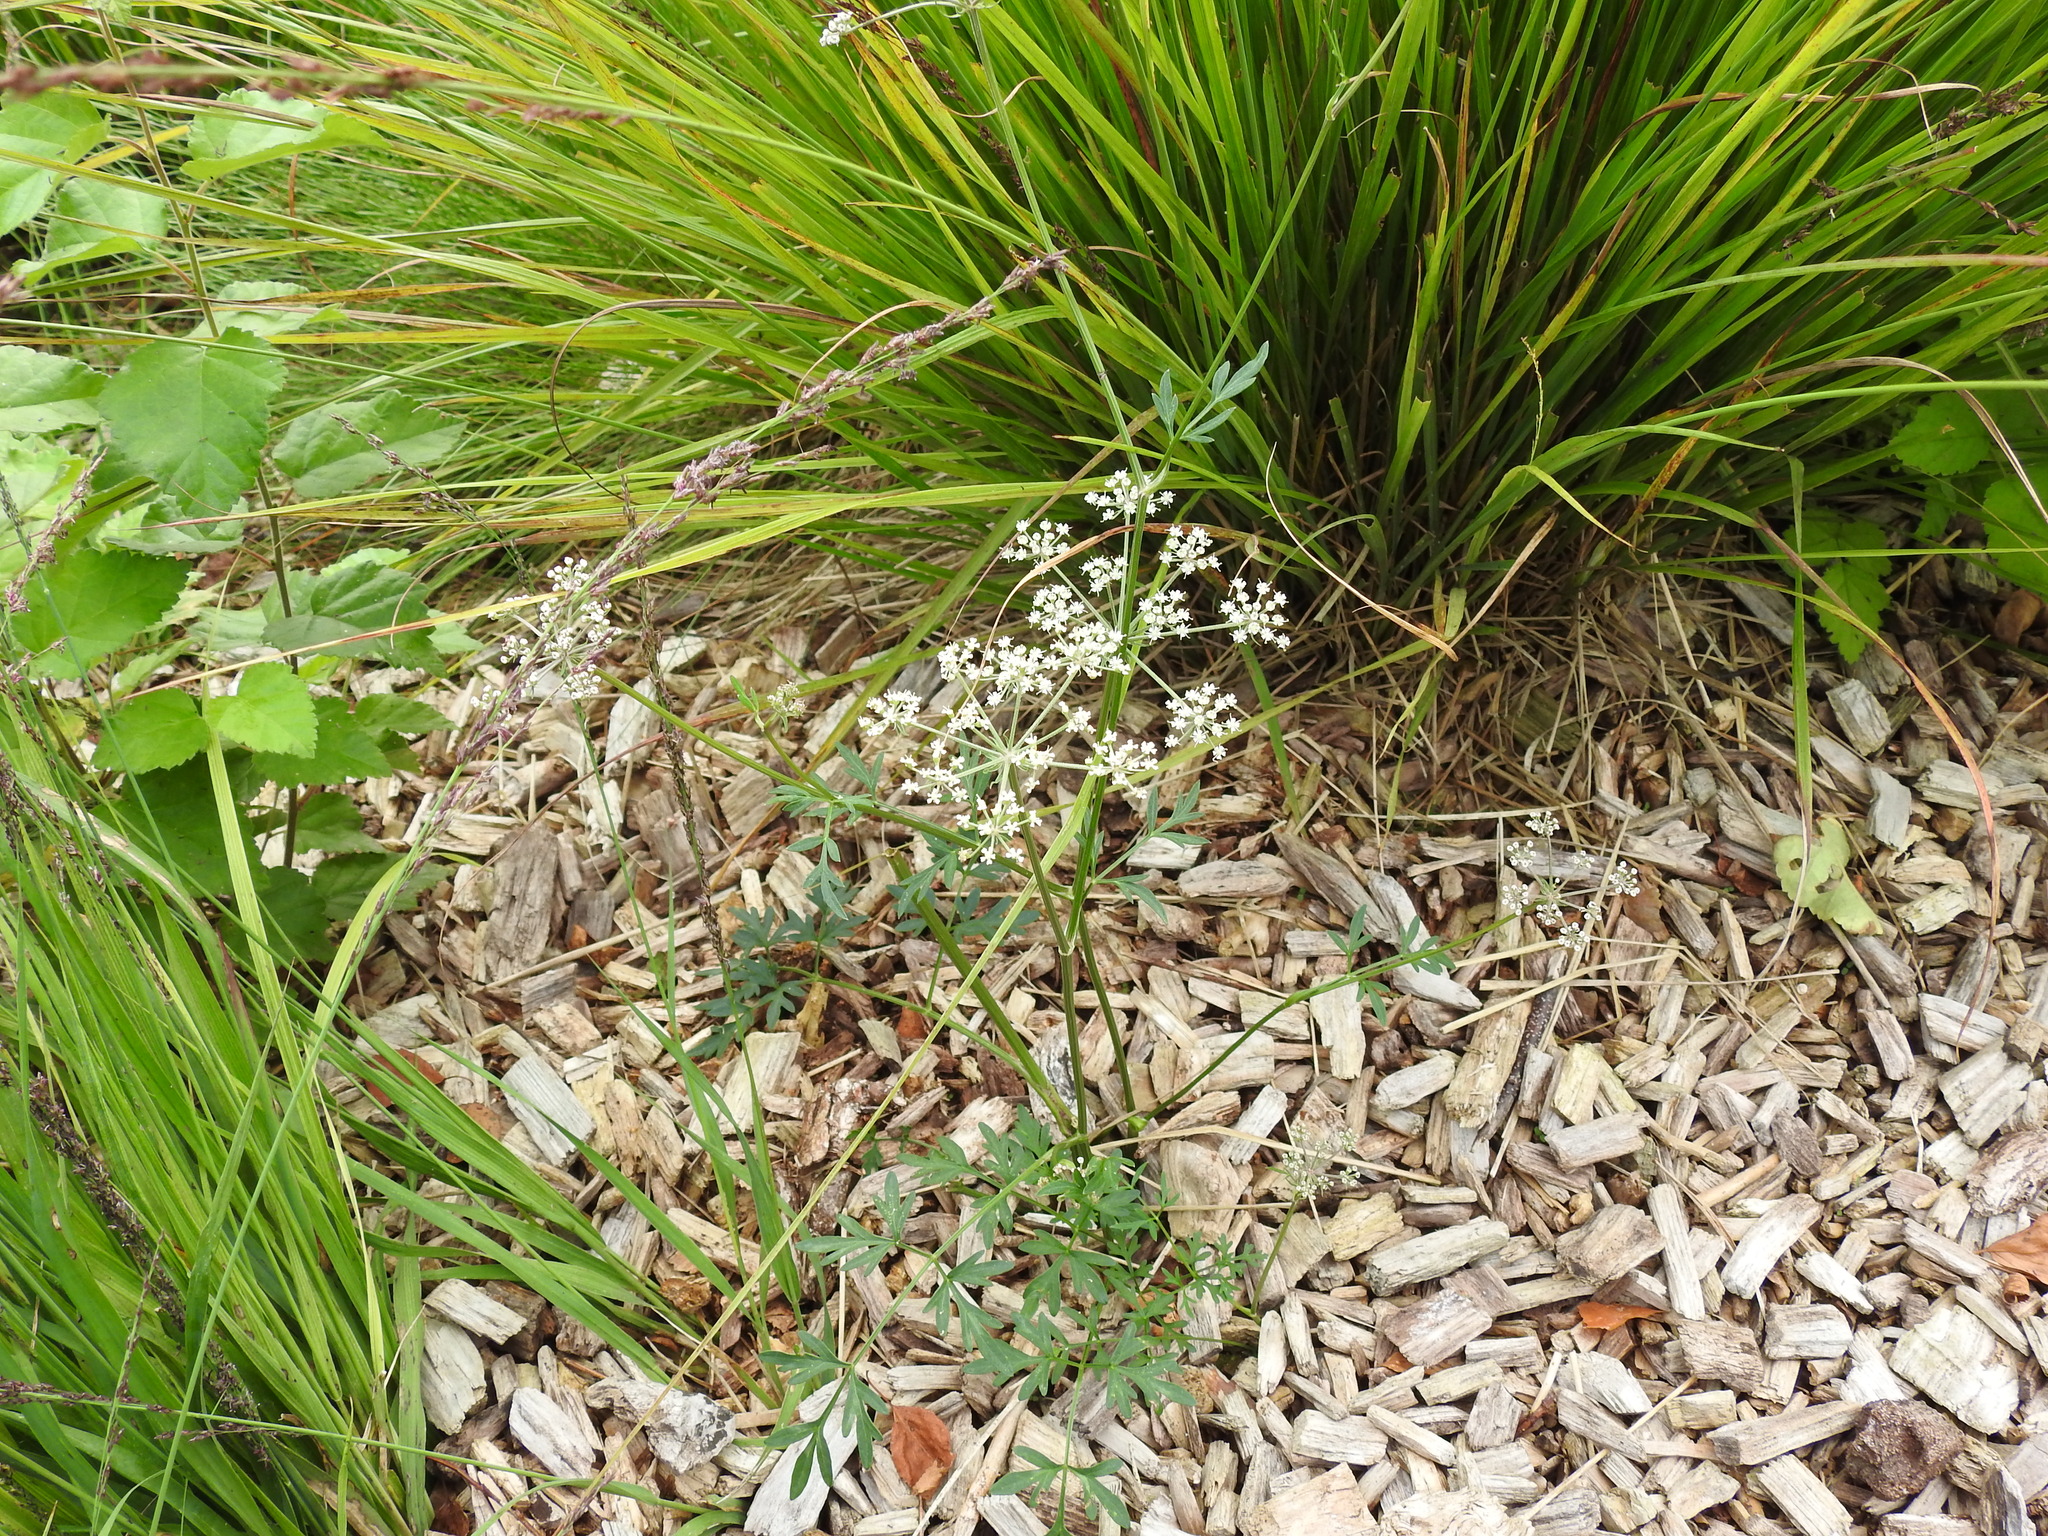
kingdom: Plantae
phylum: Tracheophyta
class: Magnoliopsida
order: Apiales
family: Apiaceae
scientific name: Apiaceae
